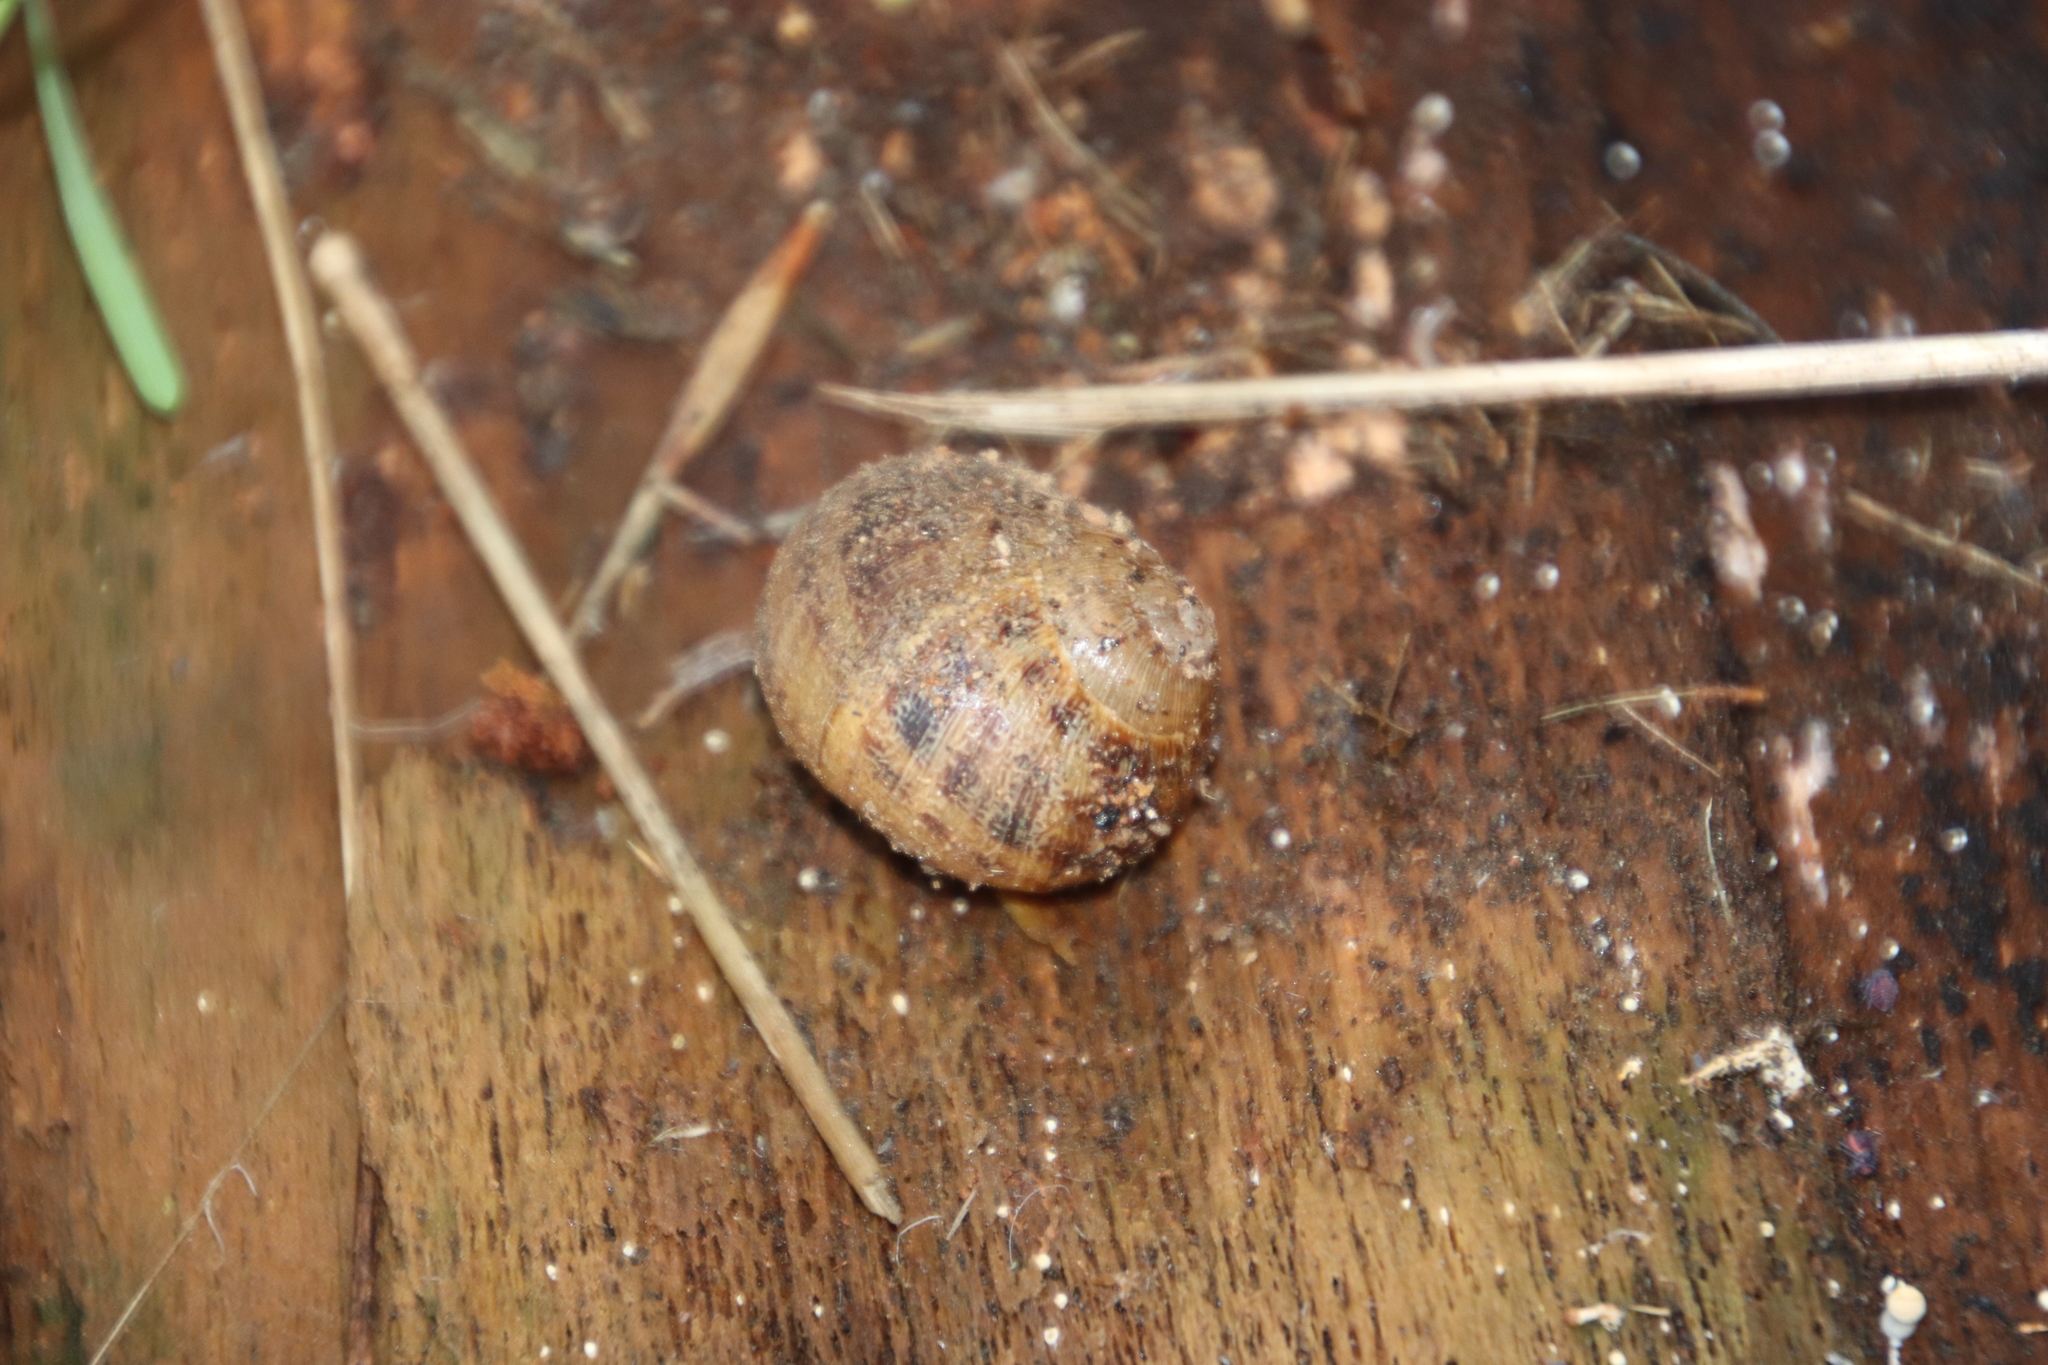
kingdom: Animalia
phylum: Mollusca
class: Gastropoda
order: Stylommatophora
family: Helicidae
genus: Cornu
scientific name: Cornu aspersum
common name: Brown garden snail
